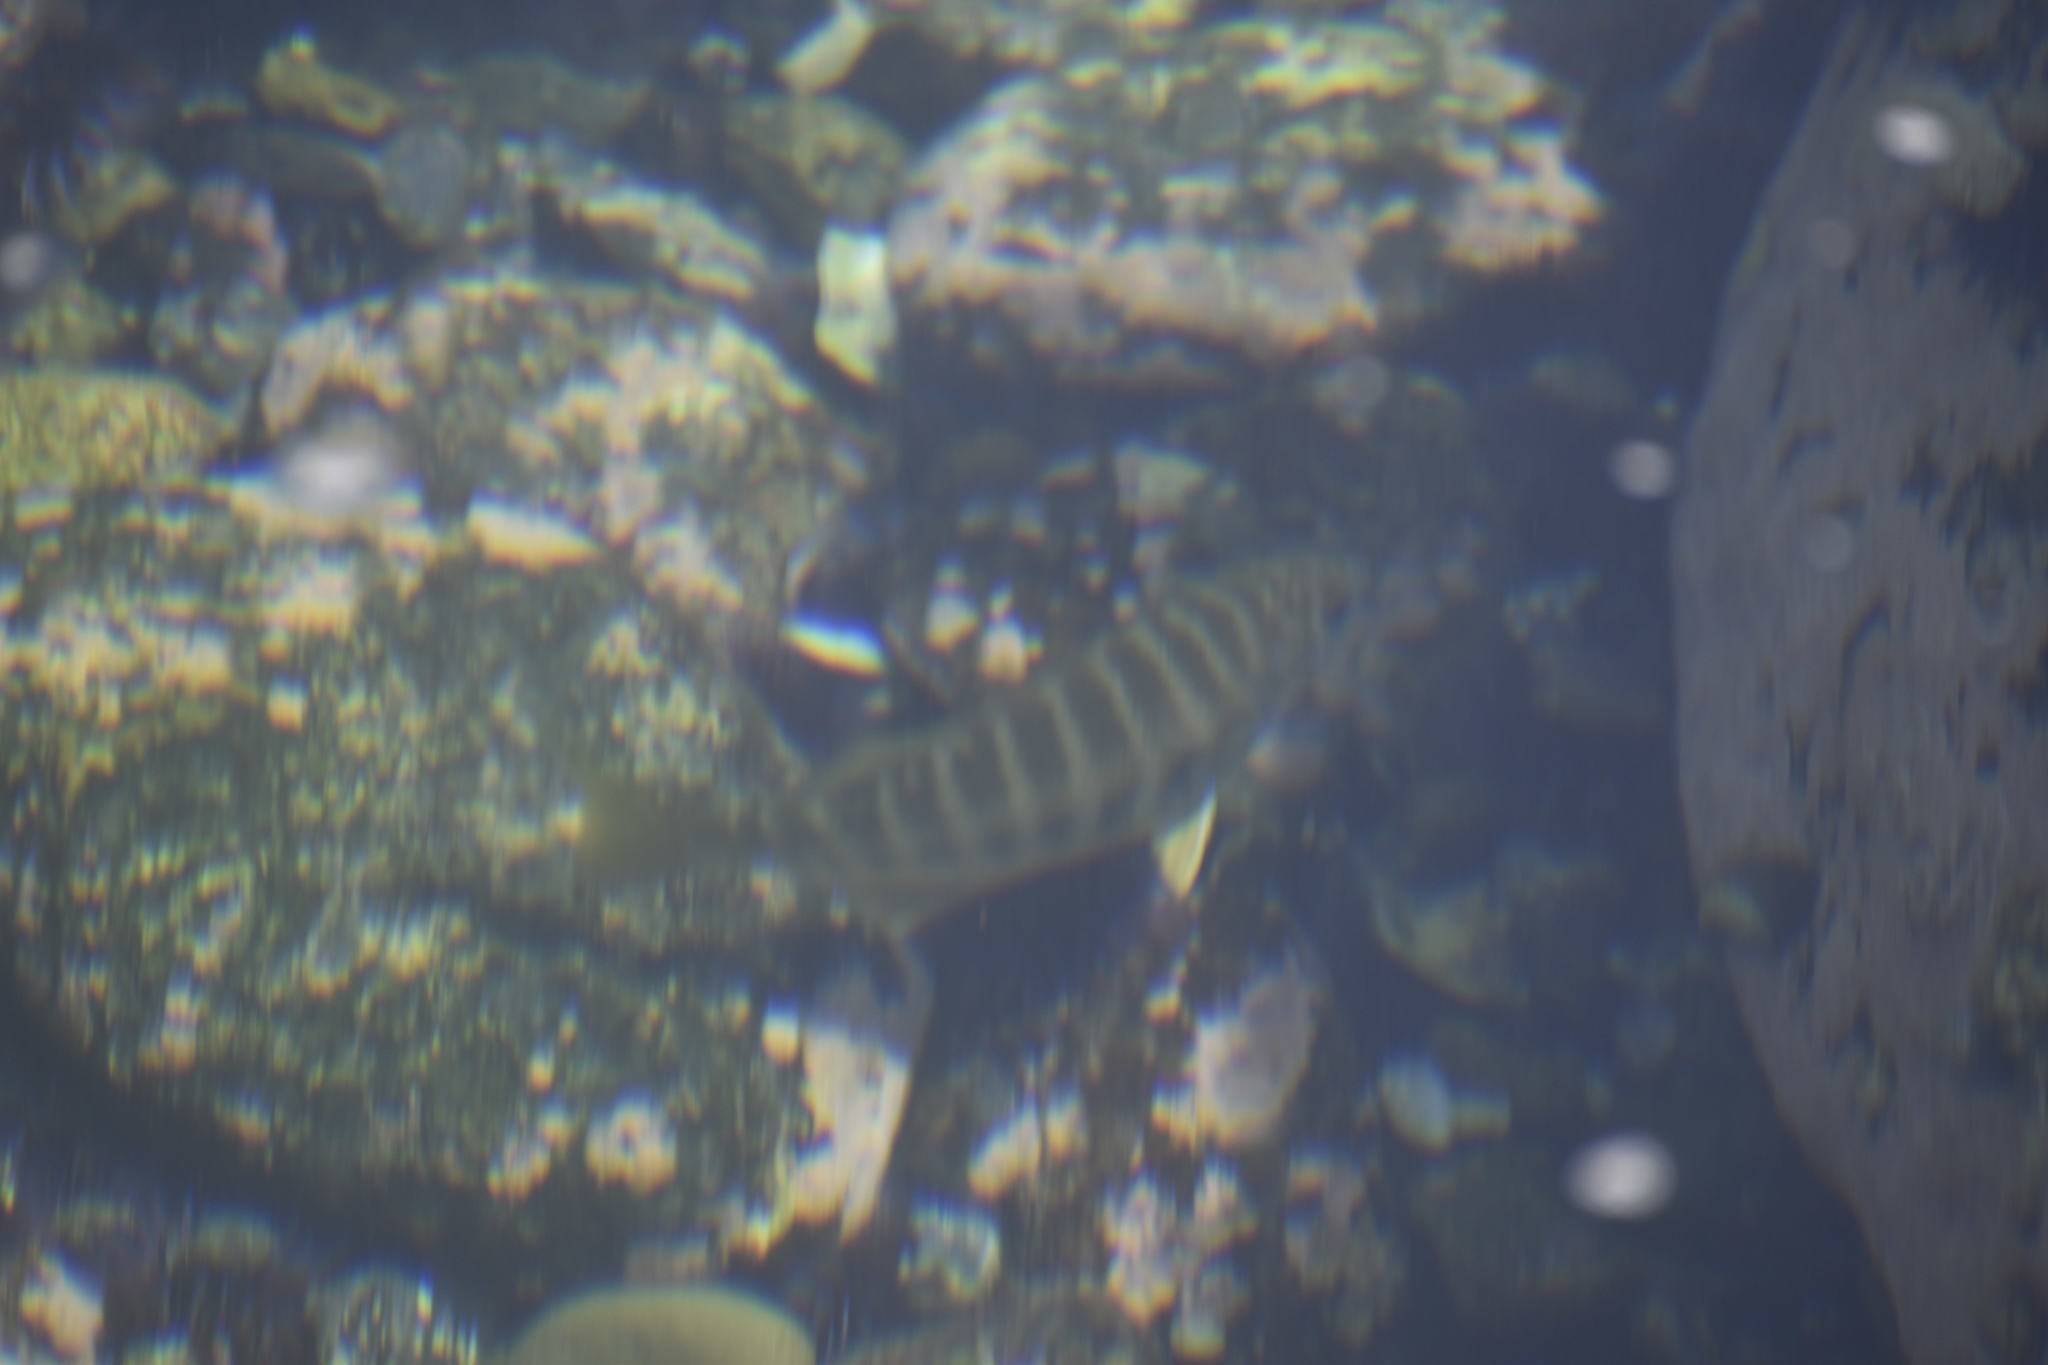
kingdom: Animalia
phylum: Chordata
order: Perciformes
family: Kyphosidae
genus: Kyphosus
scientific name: Kyphosus azureus
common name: Perch
